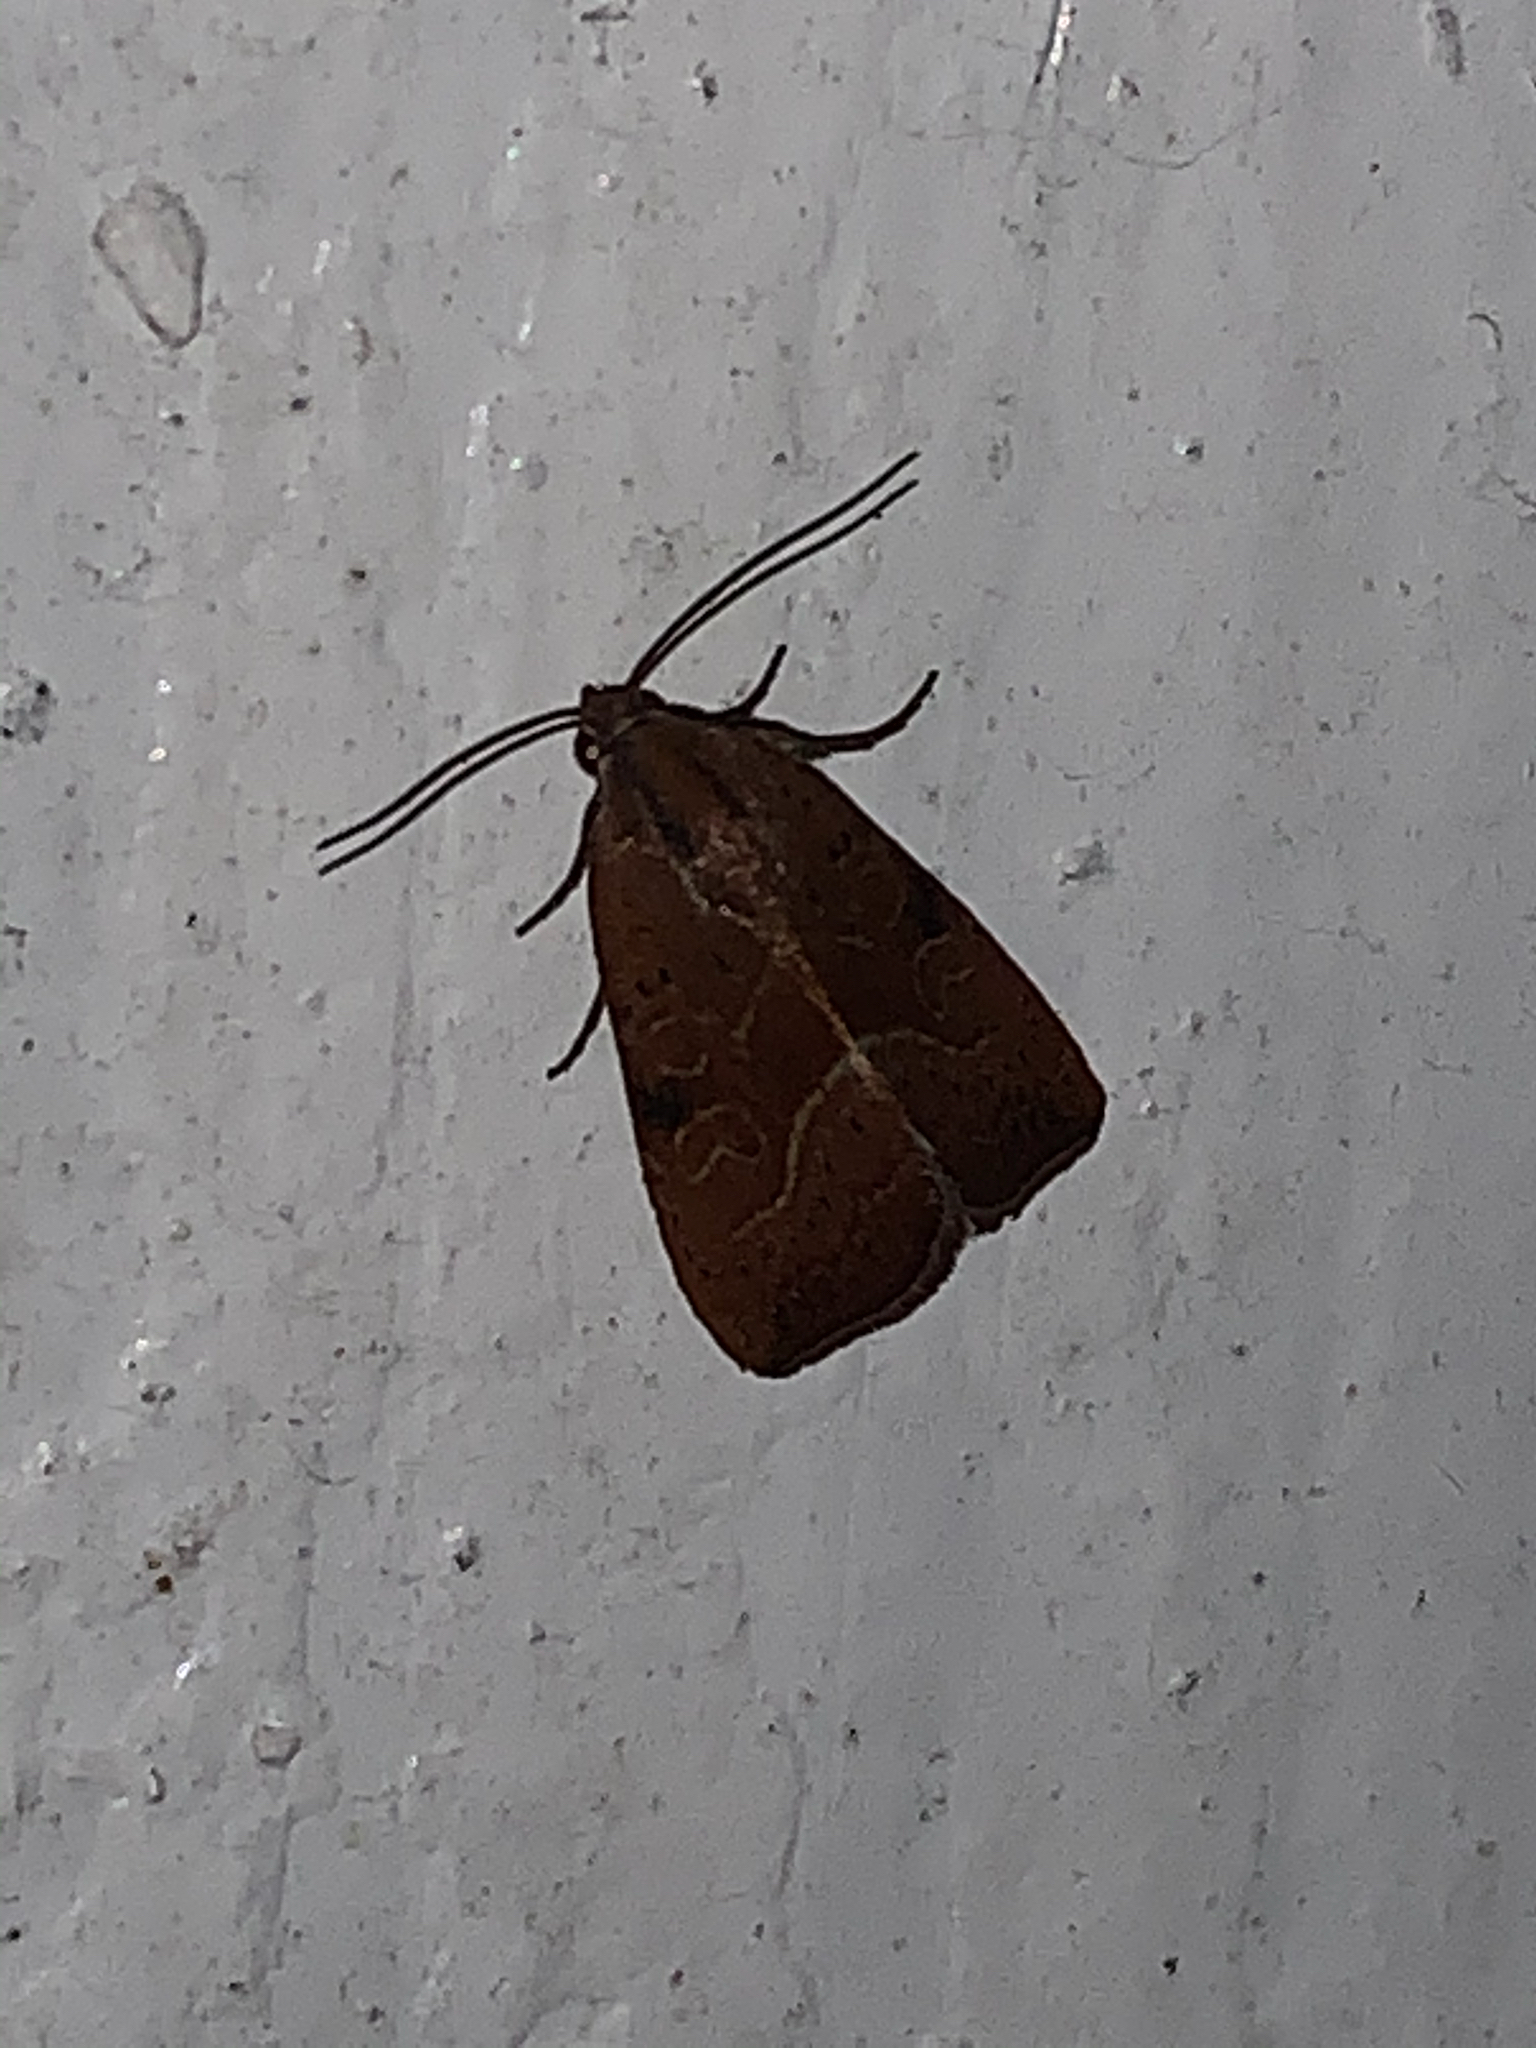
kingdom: Animalia
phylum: Arthropoda
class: Insecta
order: Lepidoptera
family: Noctuidae
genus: Galgula
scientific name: Galgula partita
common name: Wedgeling
